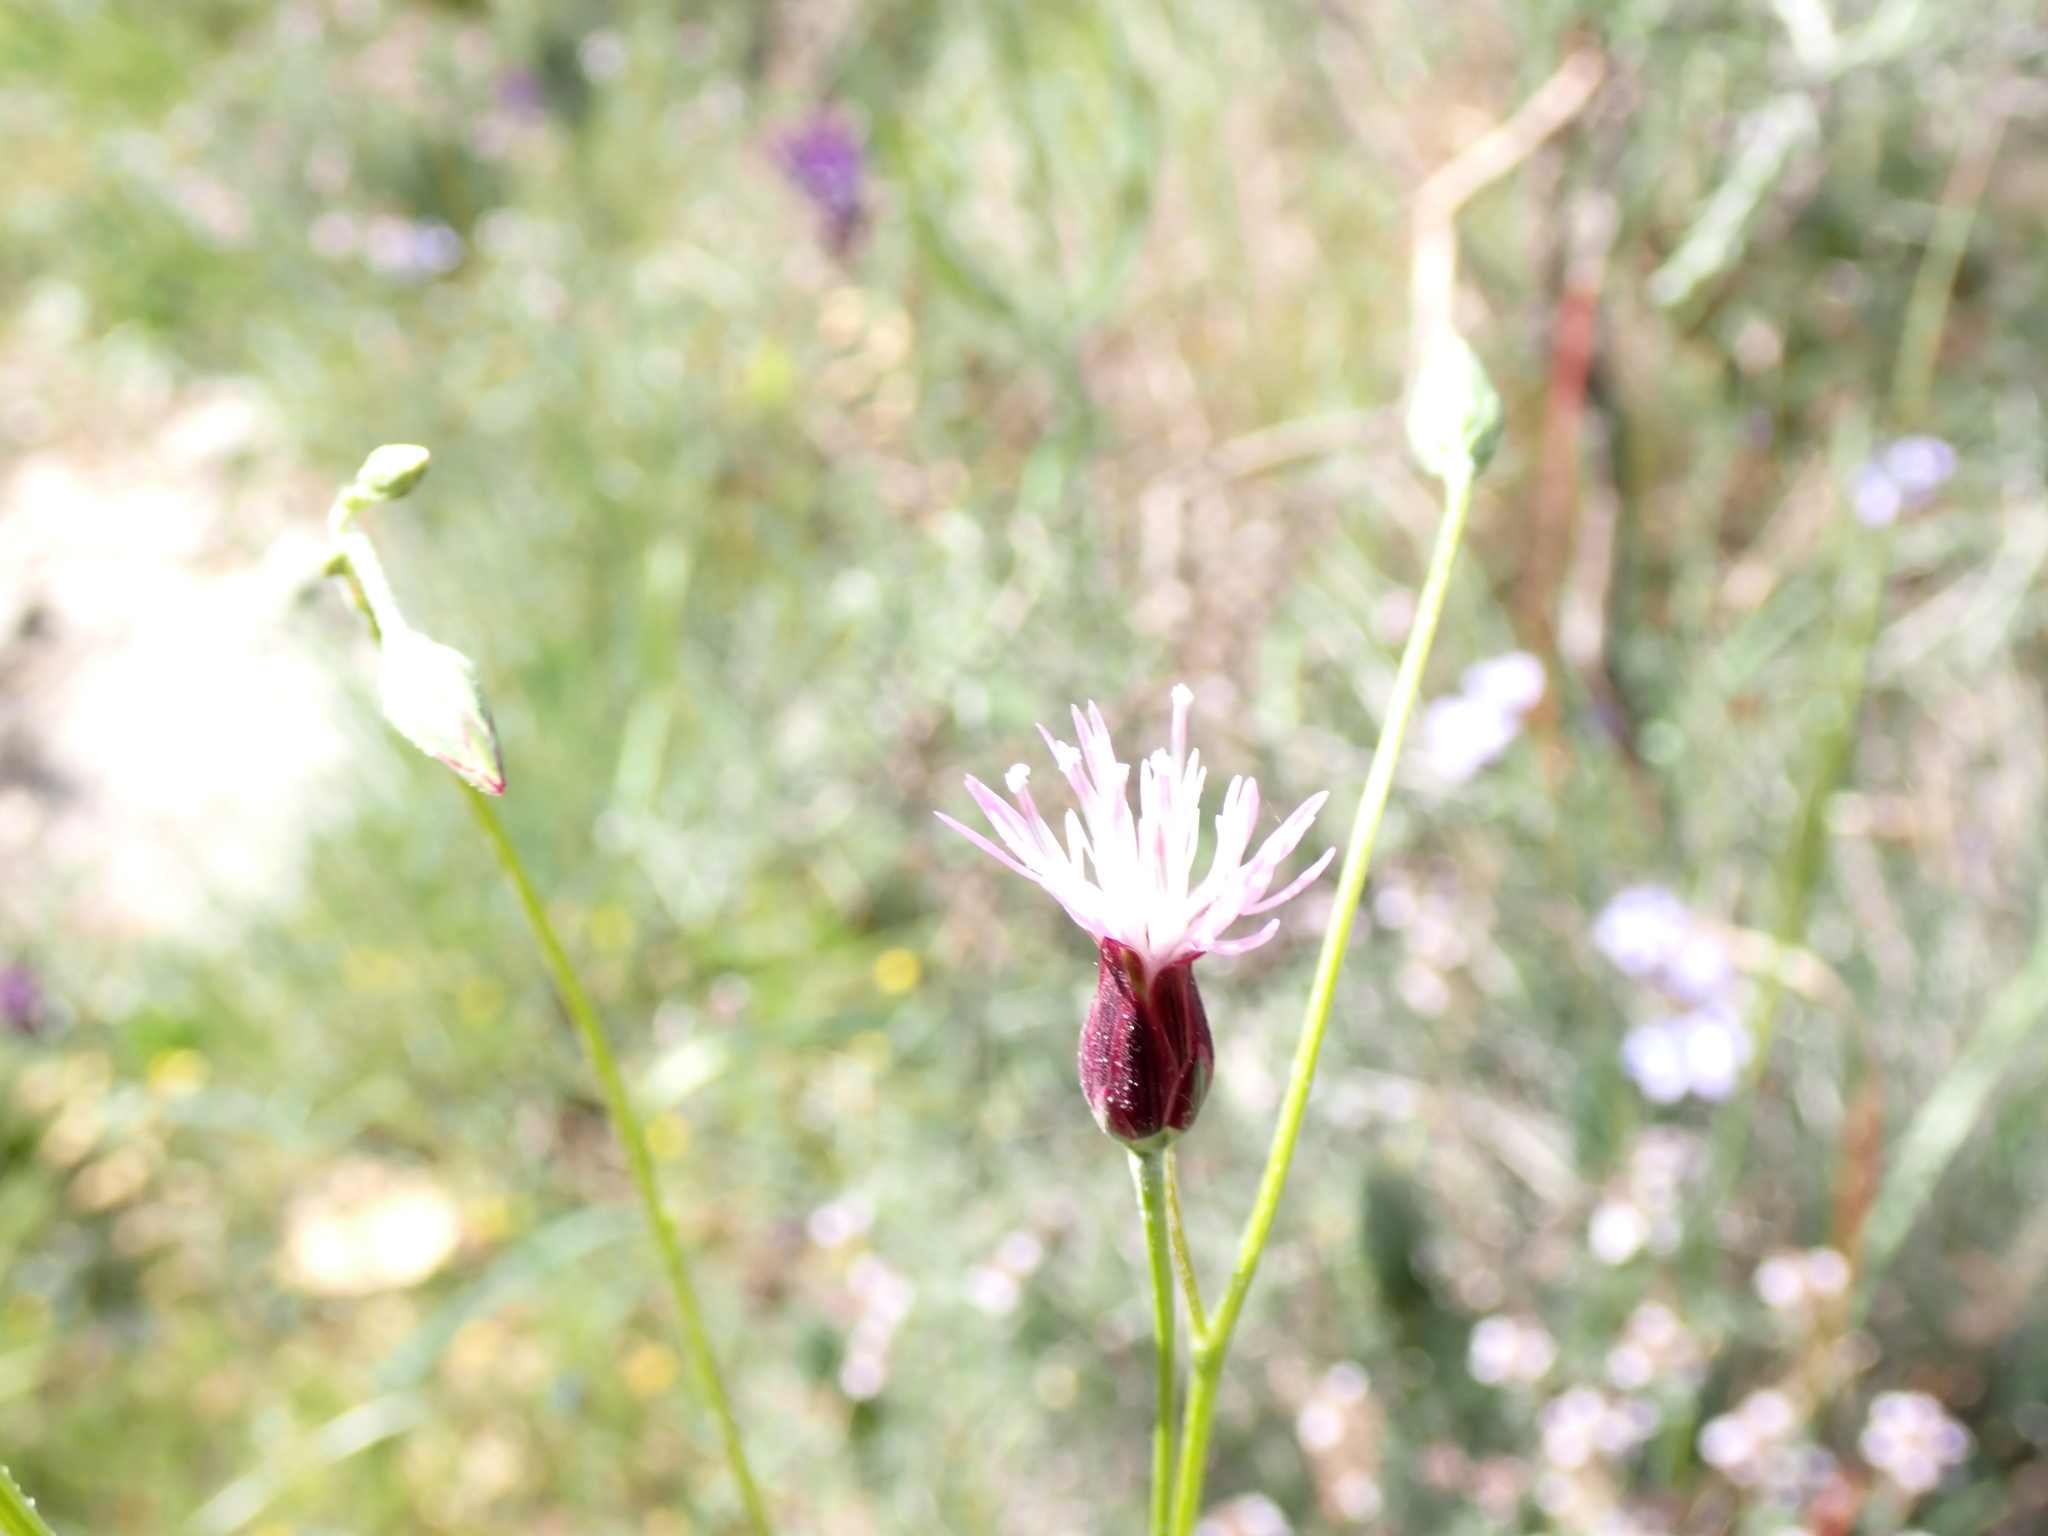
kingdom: Plantae
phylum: Tracheophyta
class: Magnoliopsida
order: Asterales
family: Asteraceae
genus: Crupina
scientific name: Crupina vulgaris
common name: Common crupina
